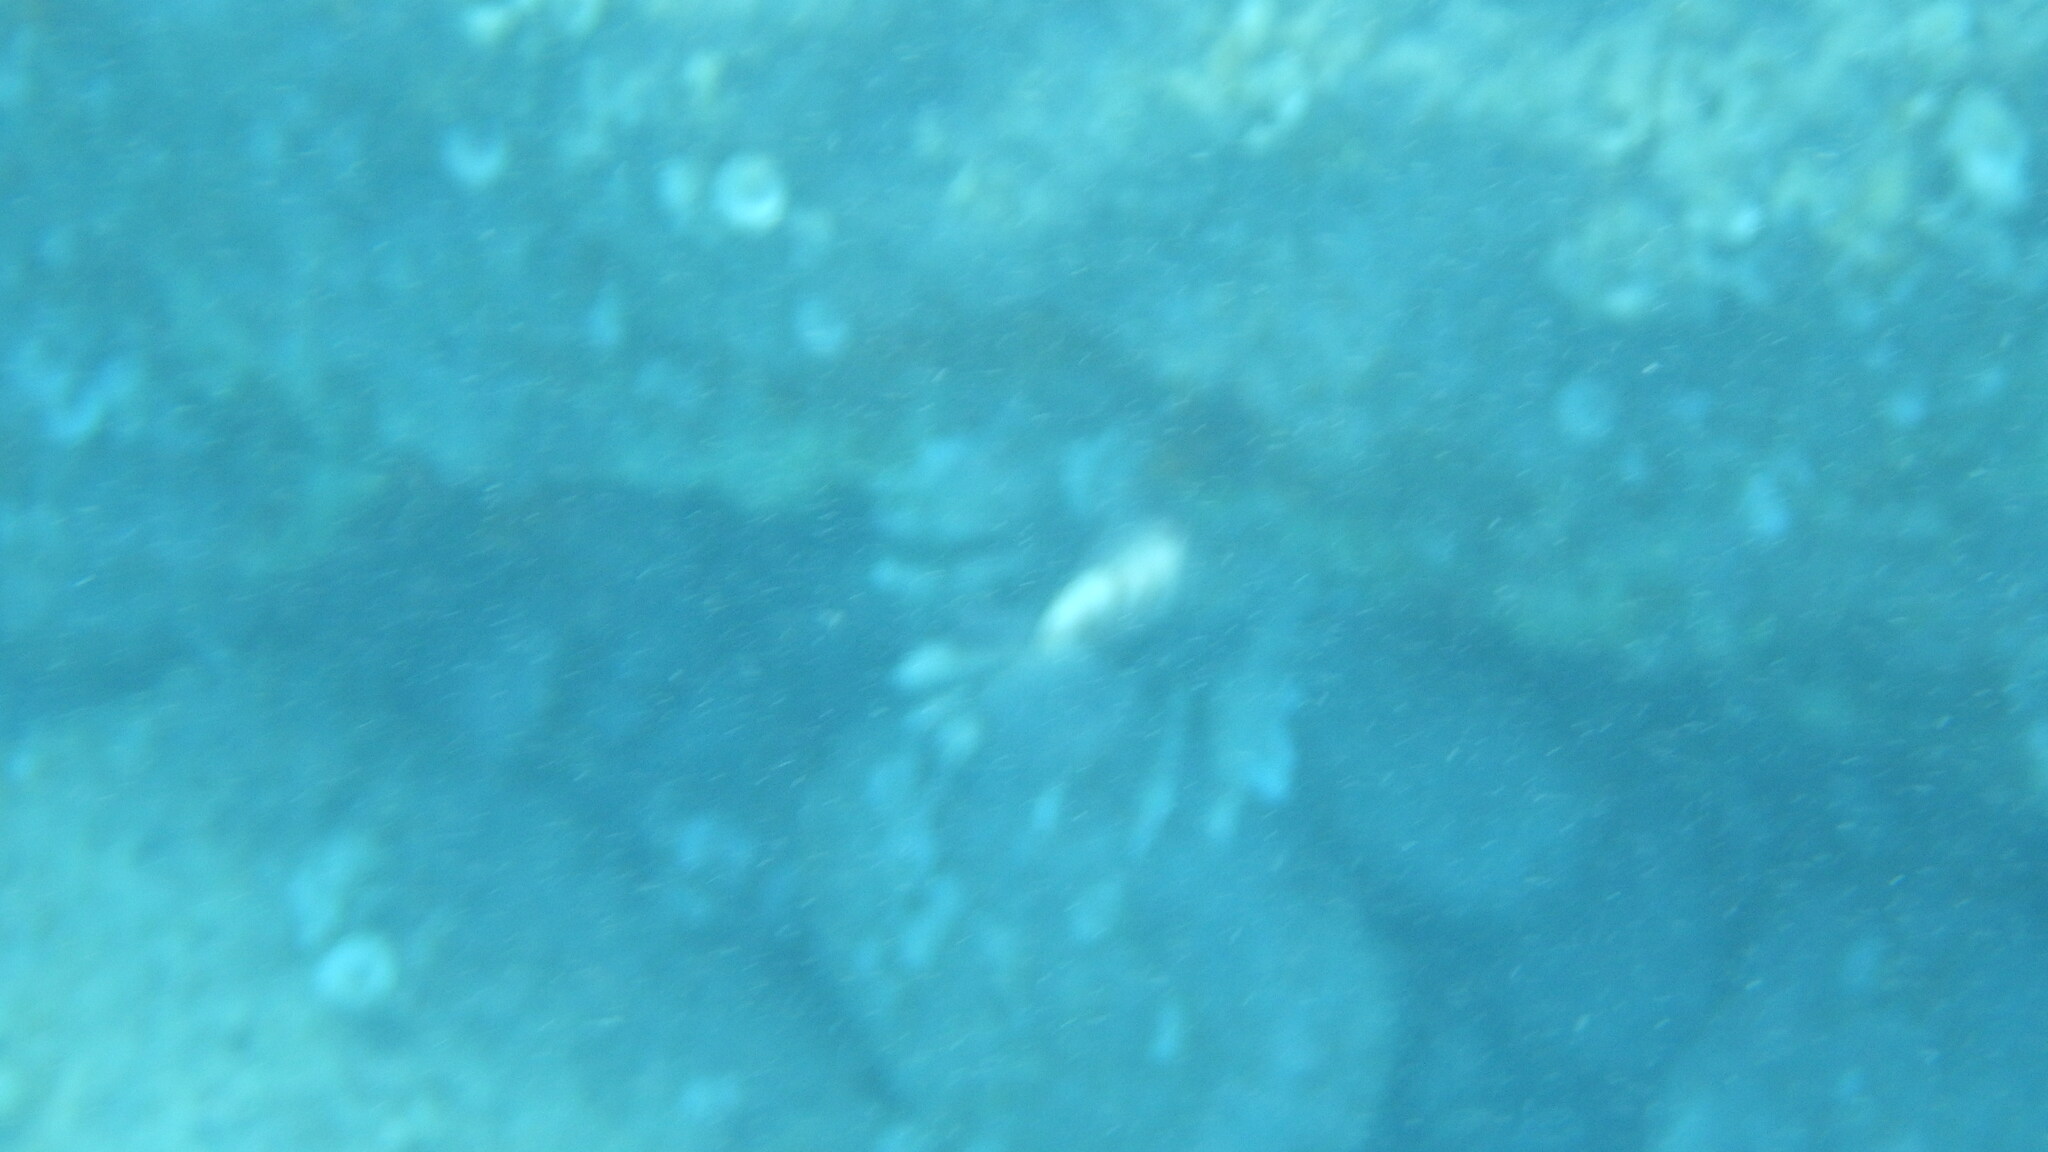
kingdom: Animalia
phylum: Chordata
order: Scorpaeniformes
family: Scorpaenidae
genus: Pterois
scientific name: Pterois miles
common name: Devil firefish
